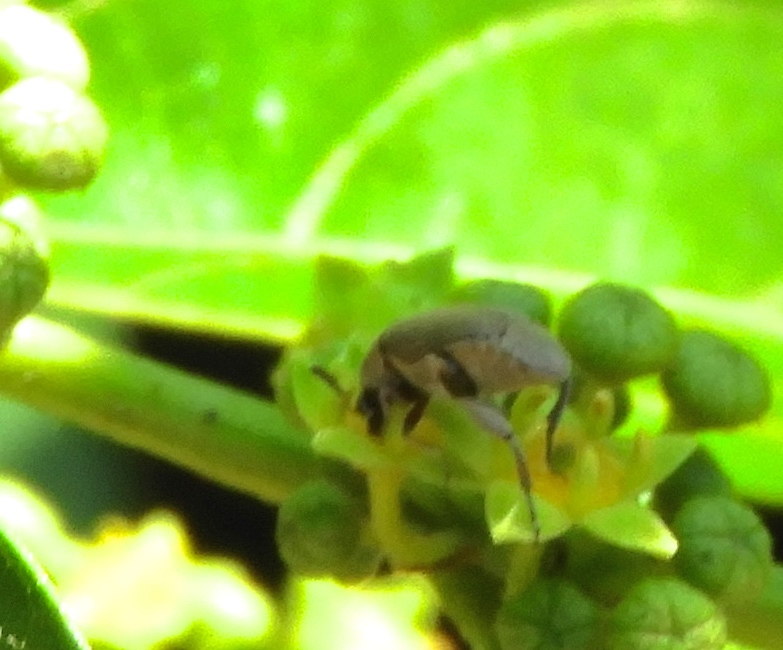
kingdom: Animalia
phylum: Arthropoda
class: Insecta
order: Coleoptera
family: Bruchidae
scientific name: Bruchidae
